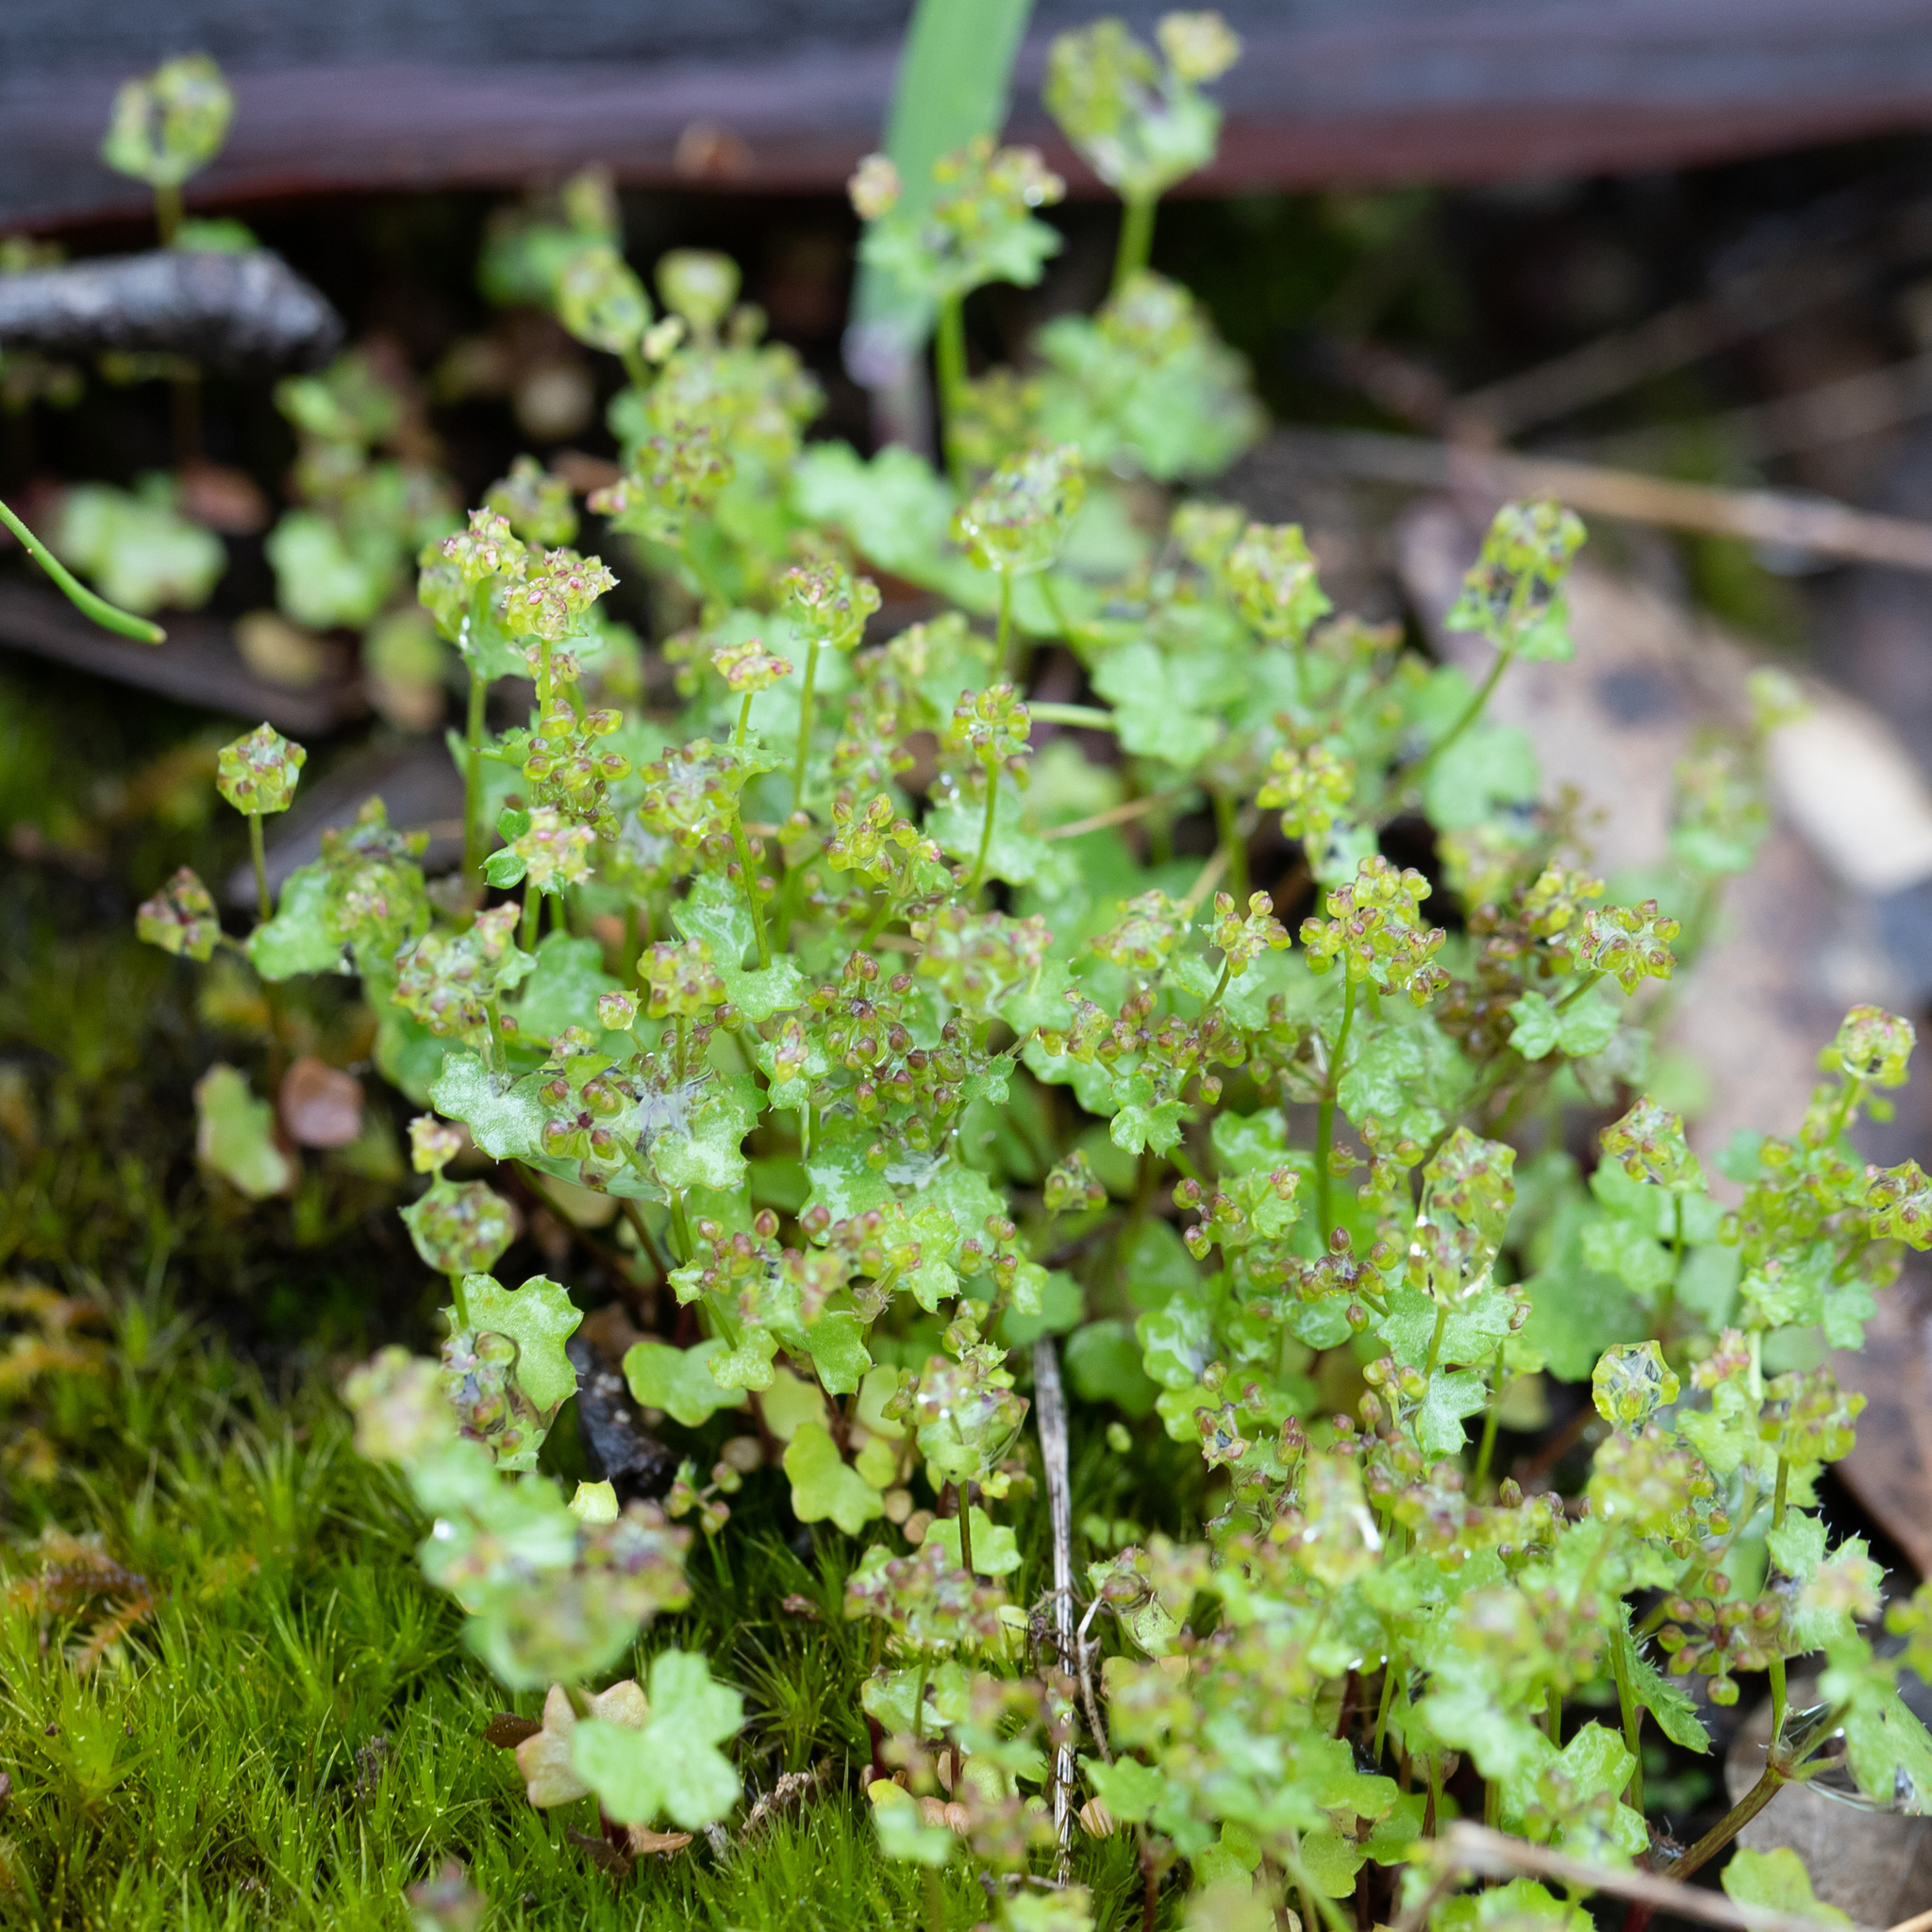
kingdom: Plantae
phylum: Tracheophyta
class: Magnoliopsida
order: Apiales
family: Araliaceae
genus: Hydrocotyle
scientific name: Hydrocotyle callicarpa
